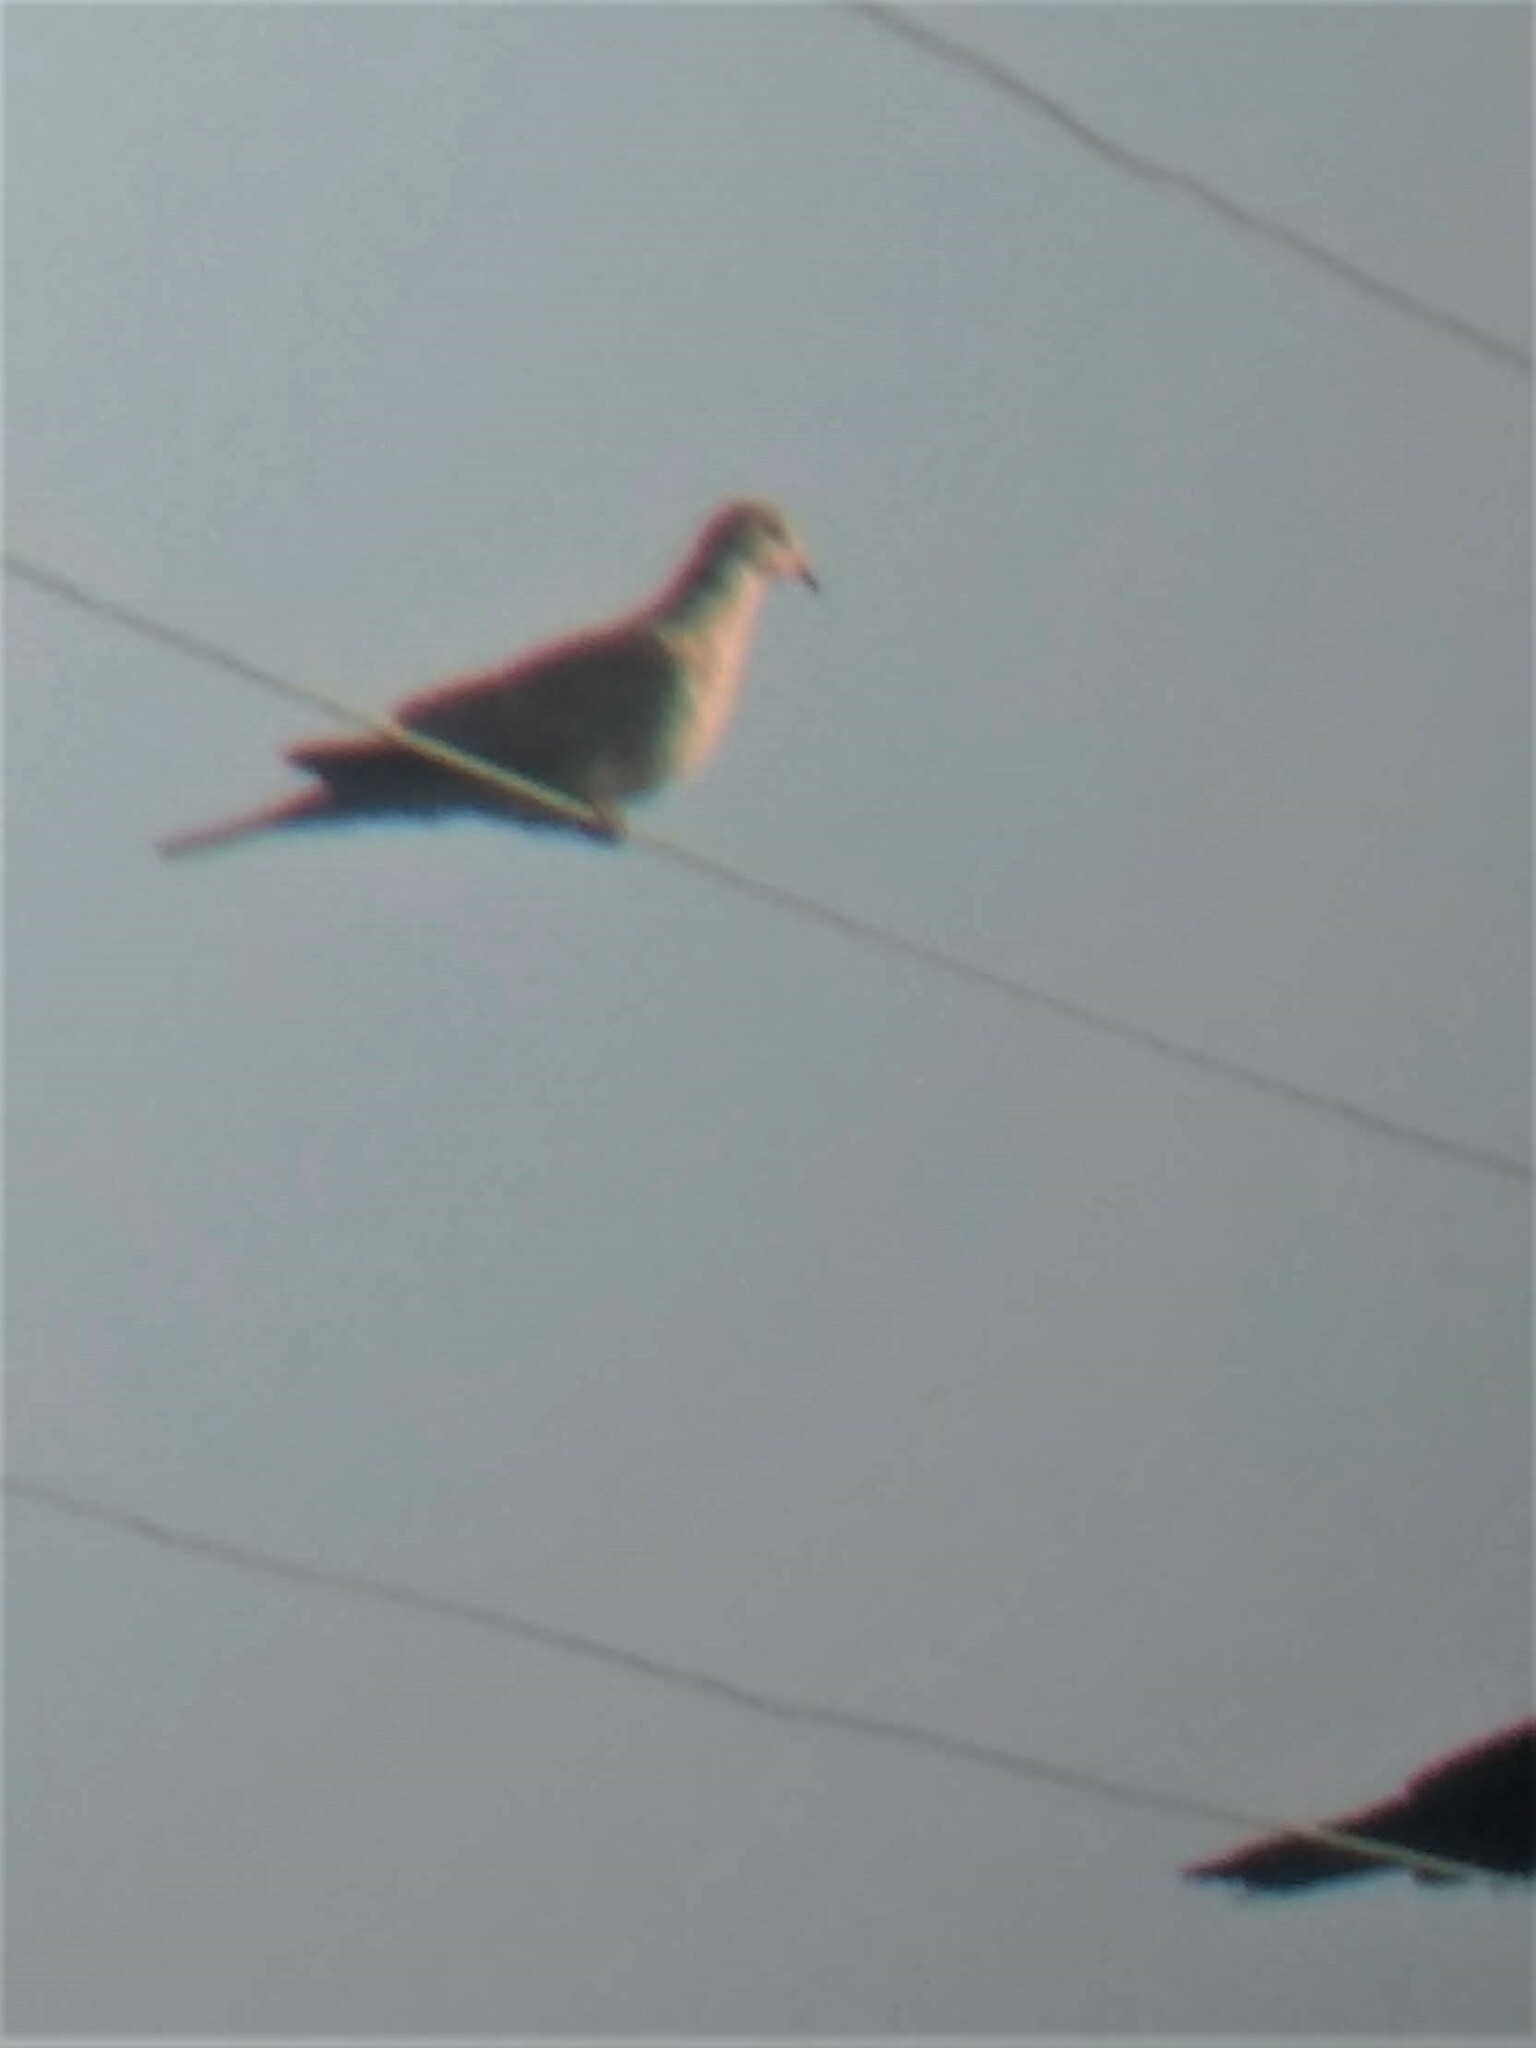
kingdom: Animalia
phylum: Chordata
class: Aves
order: Columbiformes
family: Columbidae
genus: Streptopelia
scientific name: Streptopelia decaocto
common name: Eurasian collared dove
